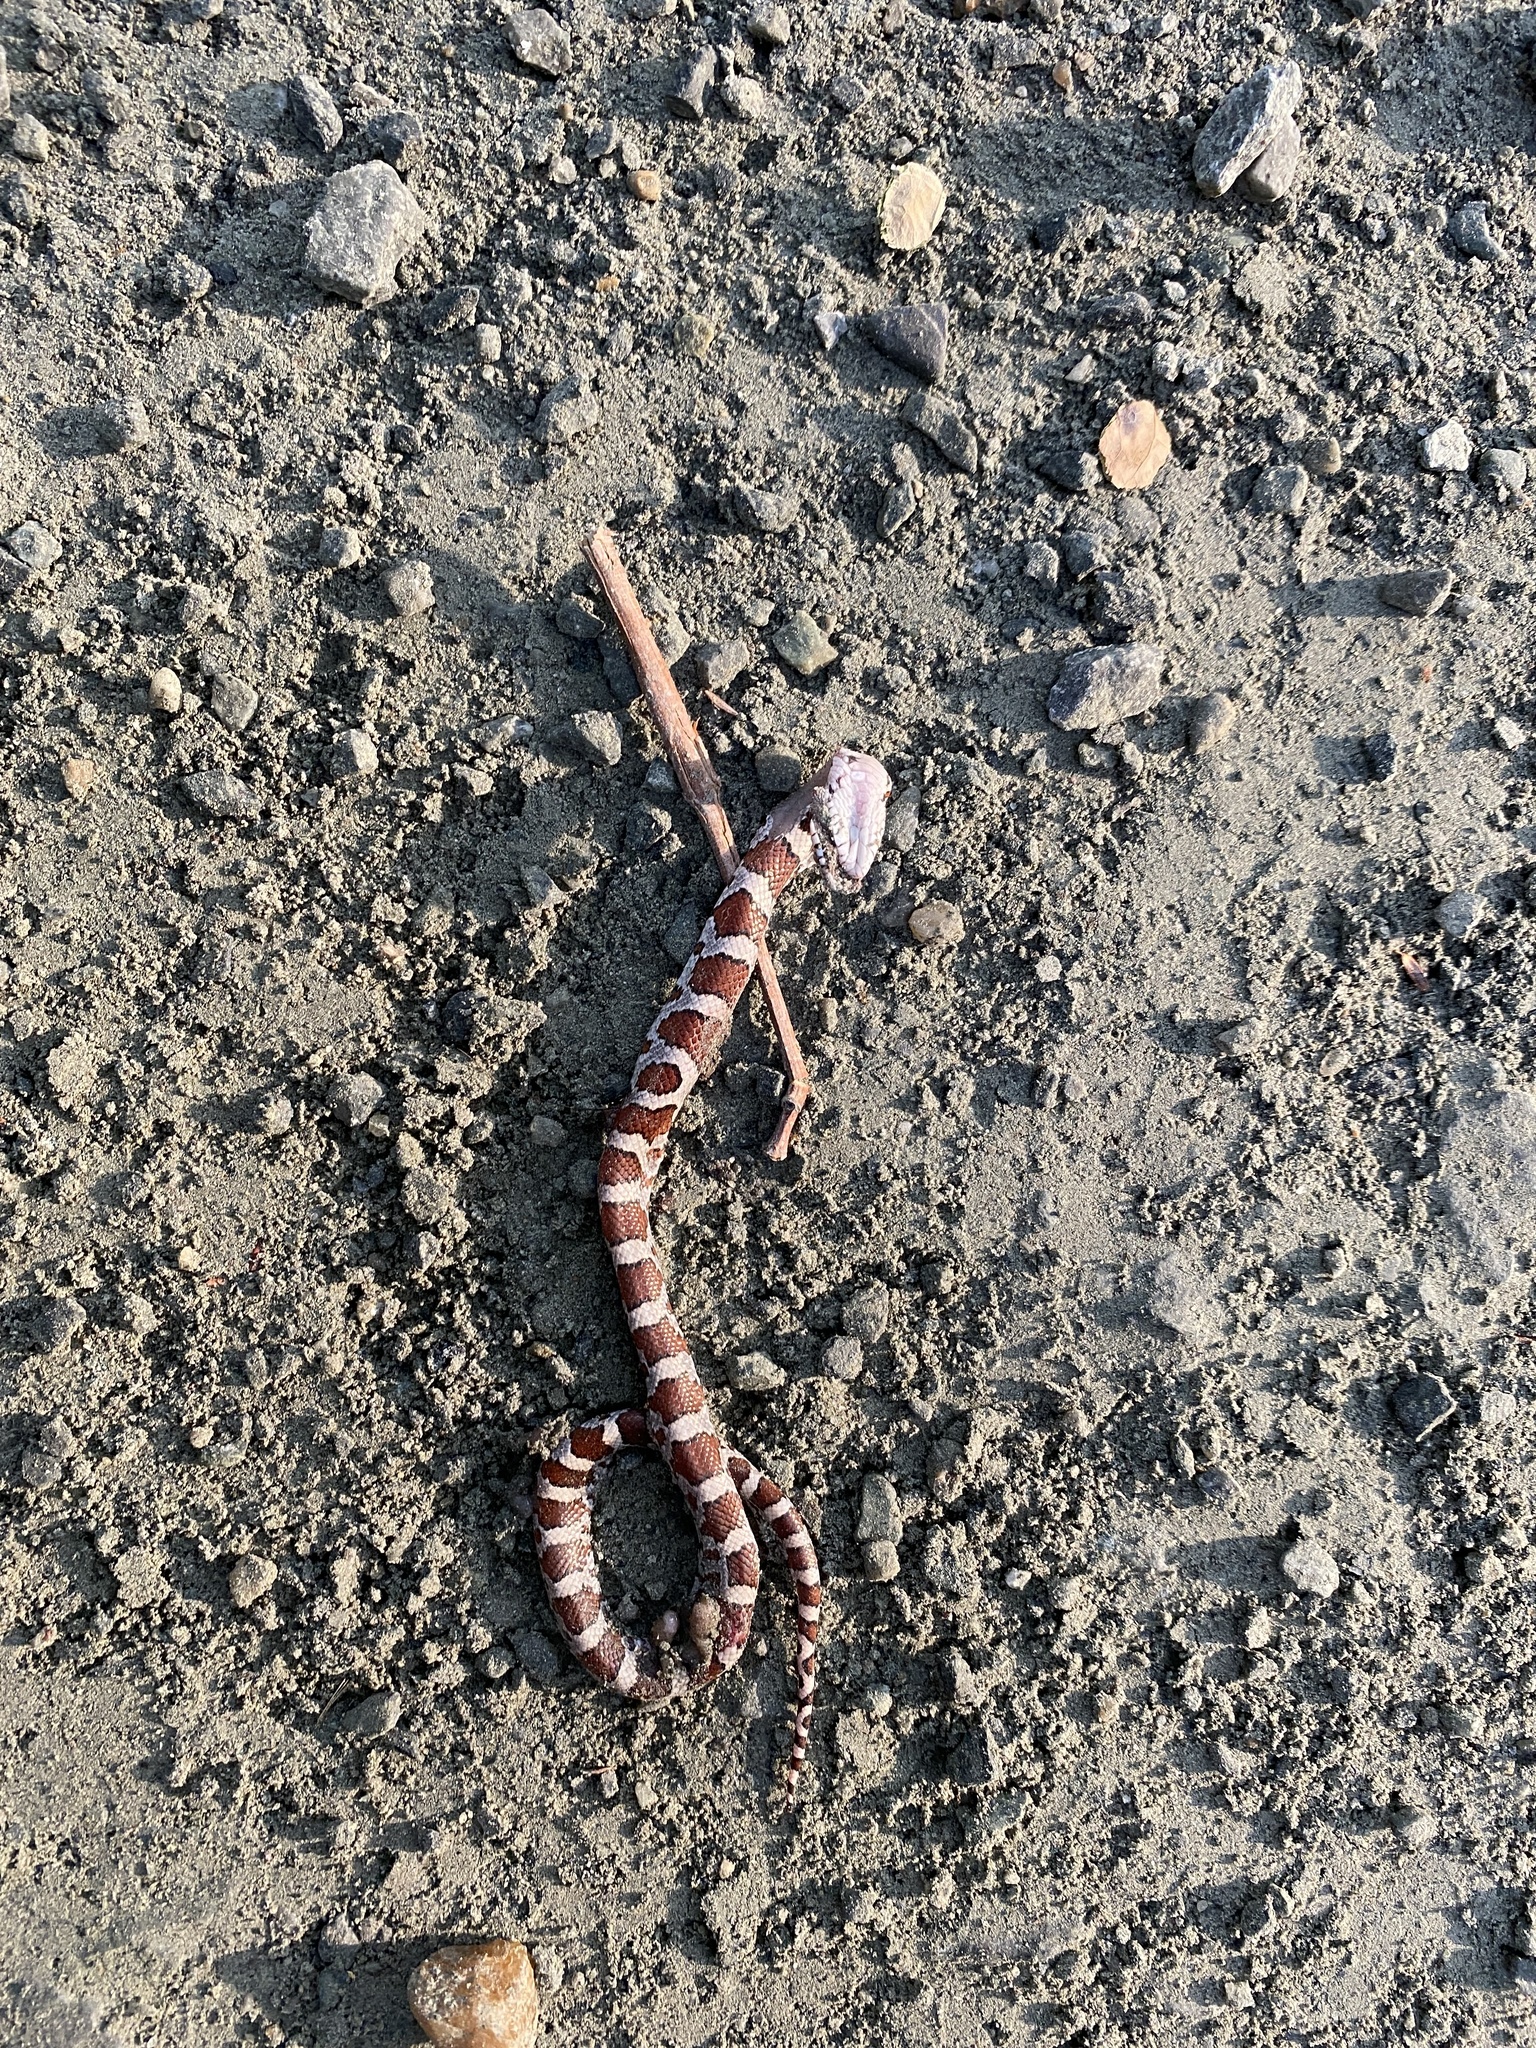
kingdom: Animalia
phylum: Chordata
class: Squamata
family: Colubridae
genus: Lampropeltis
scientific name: Lampropeltis triangulum
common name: Eastern milksnake
